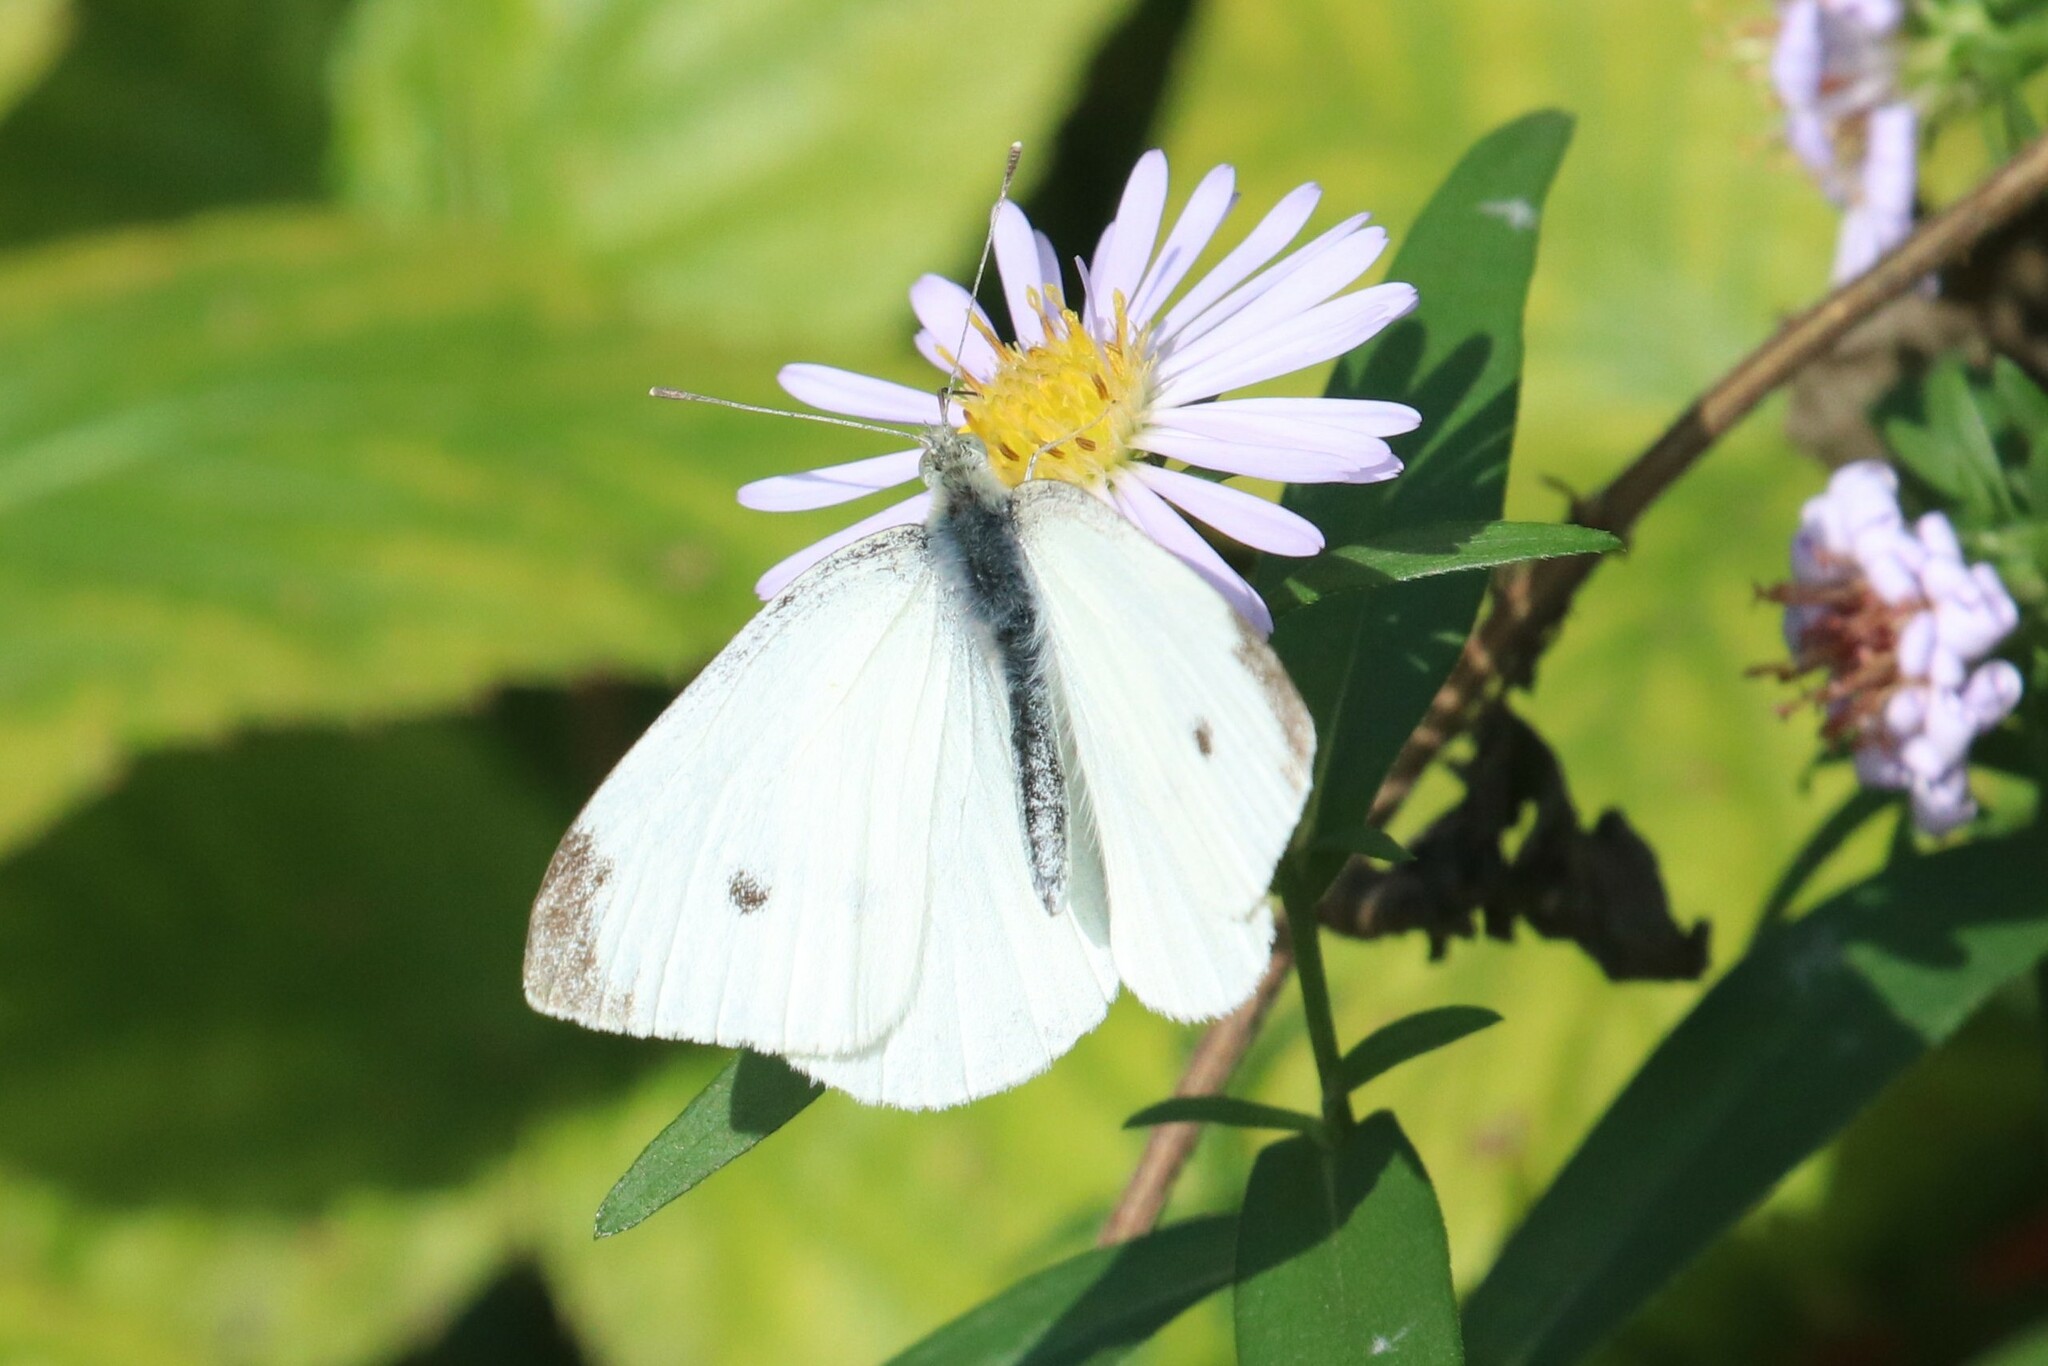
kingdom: Animalia
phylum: Arthropoda
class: Insecta
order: Lepidoptera
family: Pieridae
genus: Pieris
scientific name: Pieris rapae
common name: Small white
